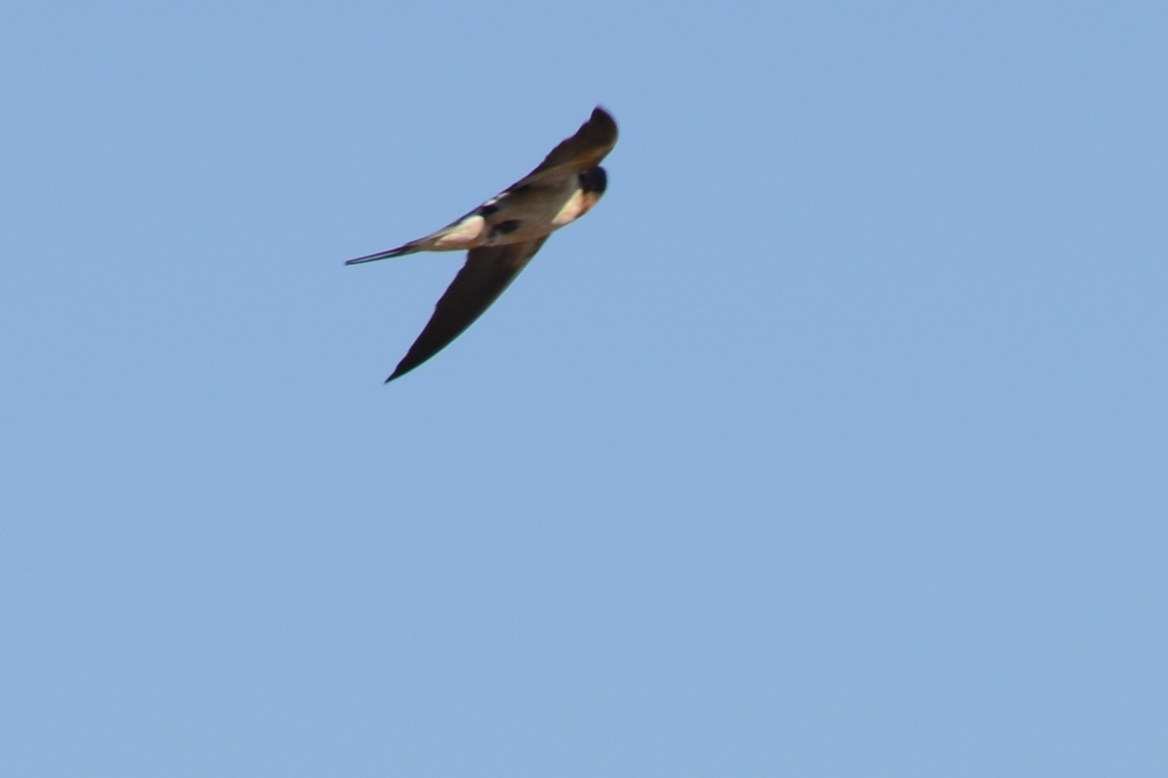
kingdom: Animalia
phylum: Chordata
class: Aves
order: Passeriformes
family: Hirundinidae
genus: Hirundo
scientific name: Hirundo rustica
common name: Barn swallow
